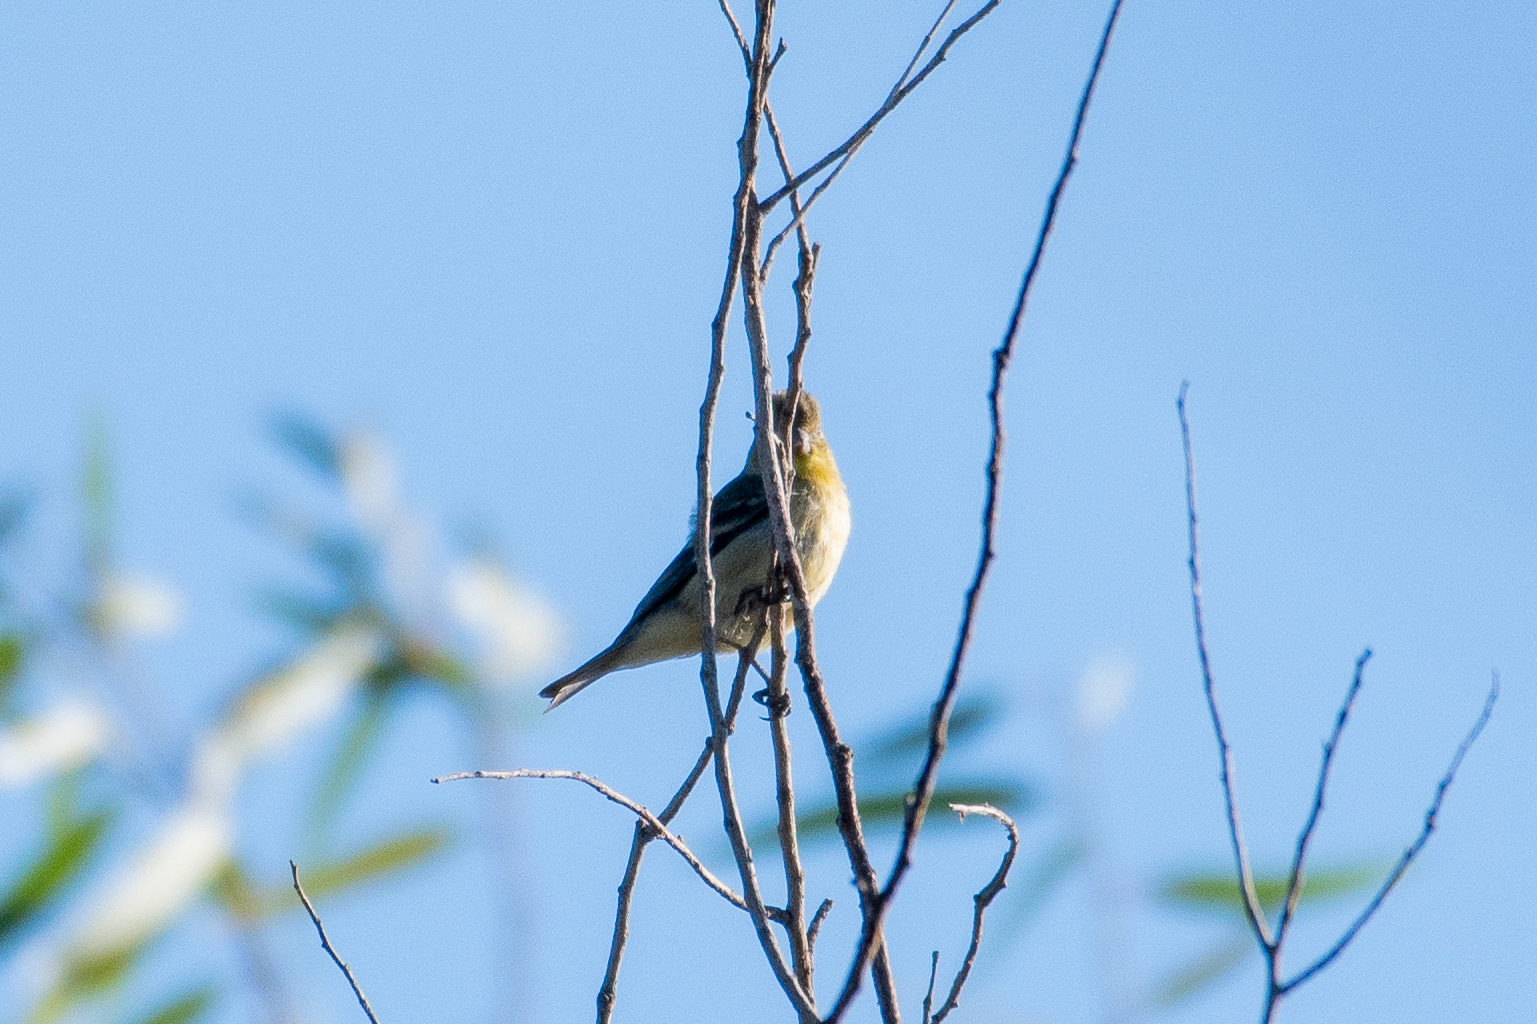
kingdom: Animalia
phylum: Chordata
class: Aves
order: Passeriformes
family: Fringillidae
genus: Spinus
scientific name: Spinus tristis
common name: American goldfinch
